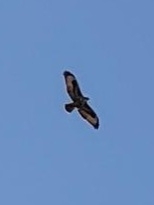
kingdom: Animalia
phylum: Chordata
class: Aves
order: Accipitriformes
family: Accipitridae
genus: Buteo
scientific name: Buteo buteo
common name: Common buzzard
